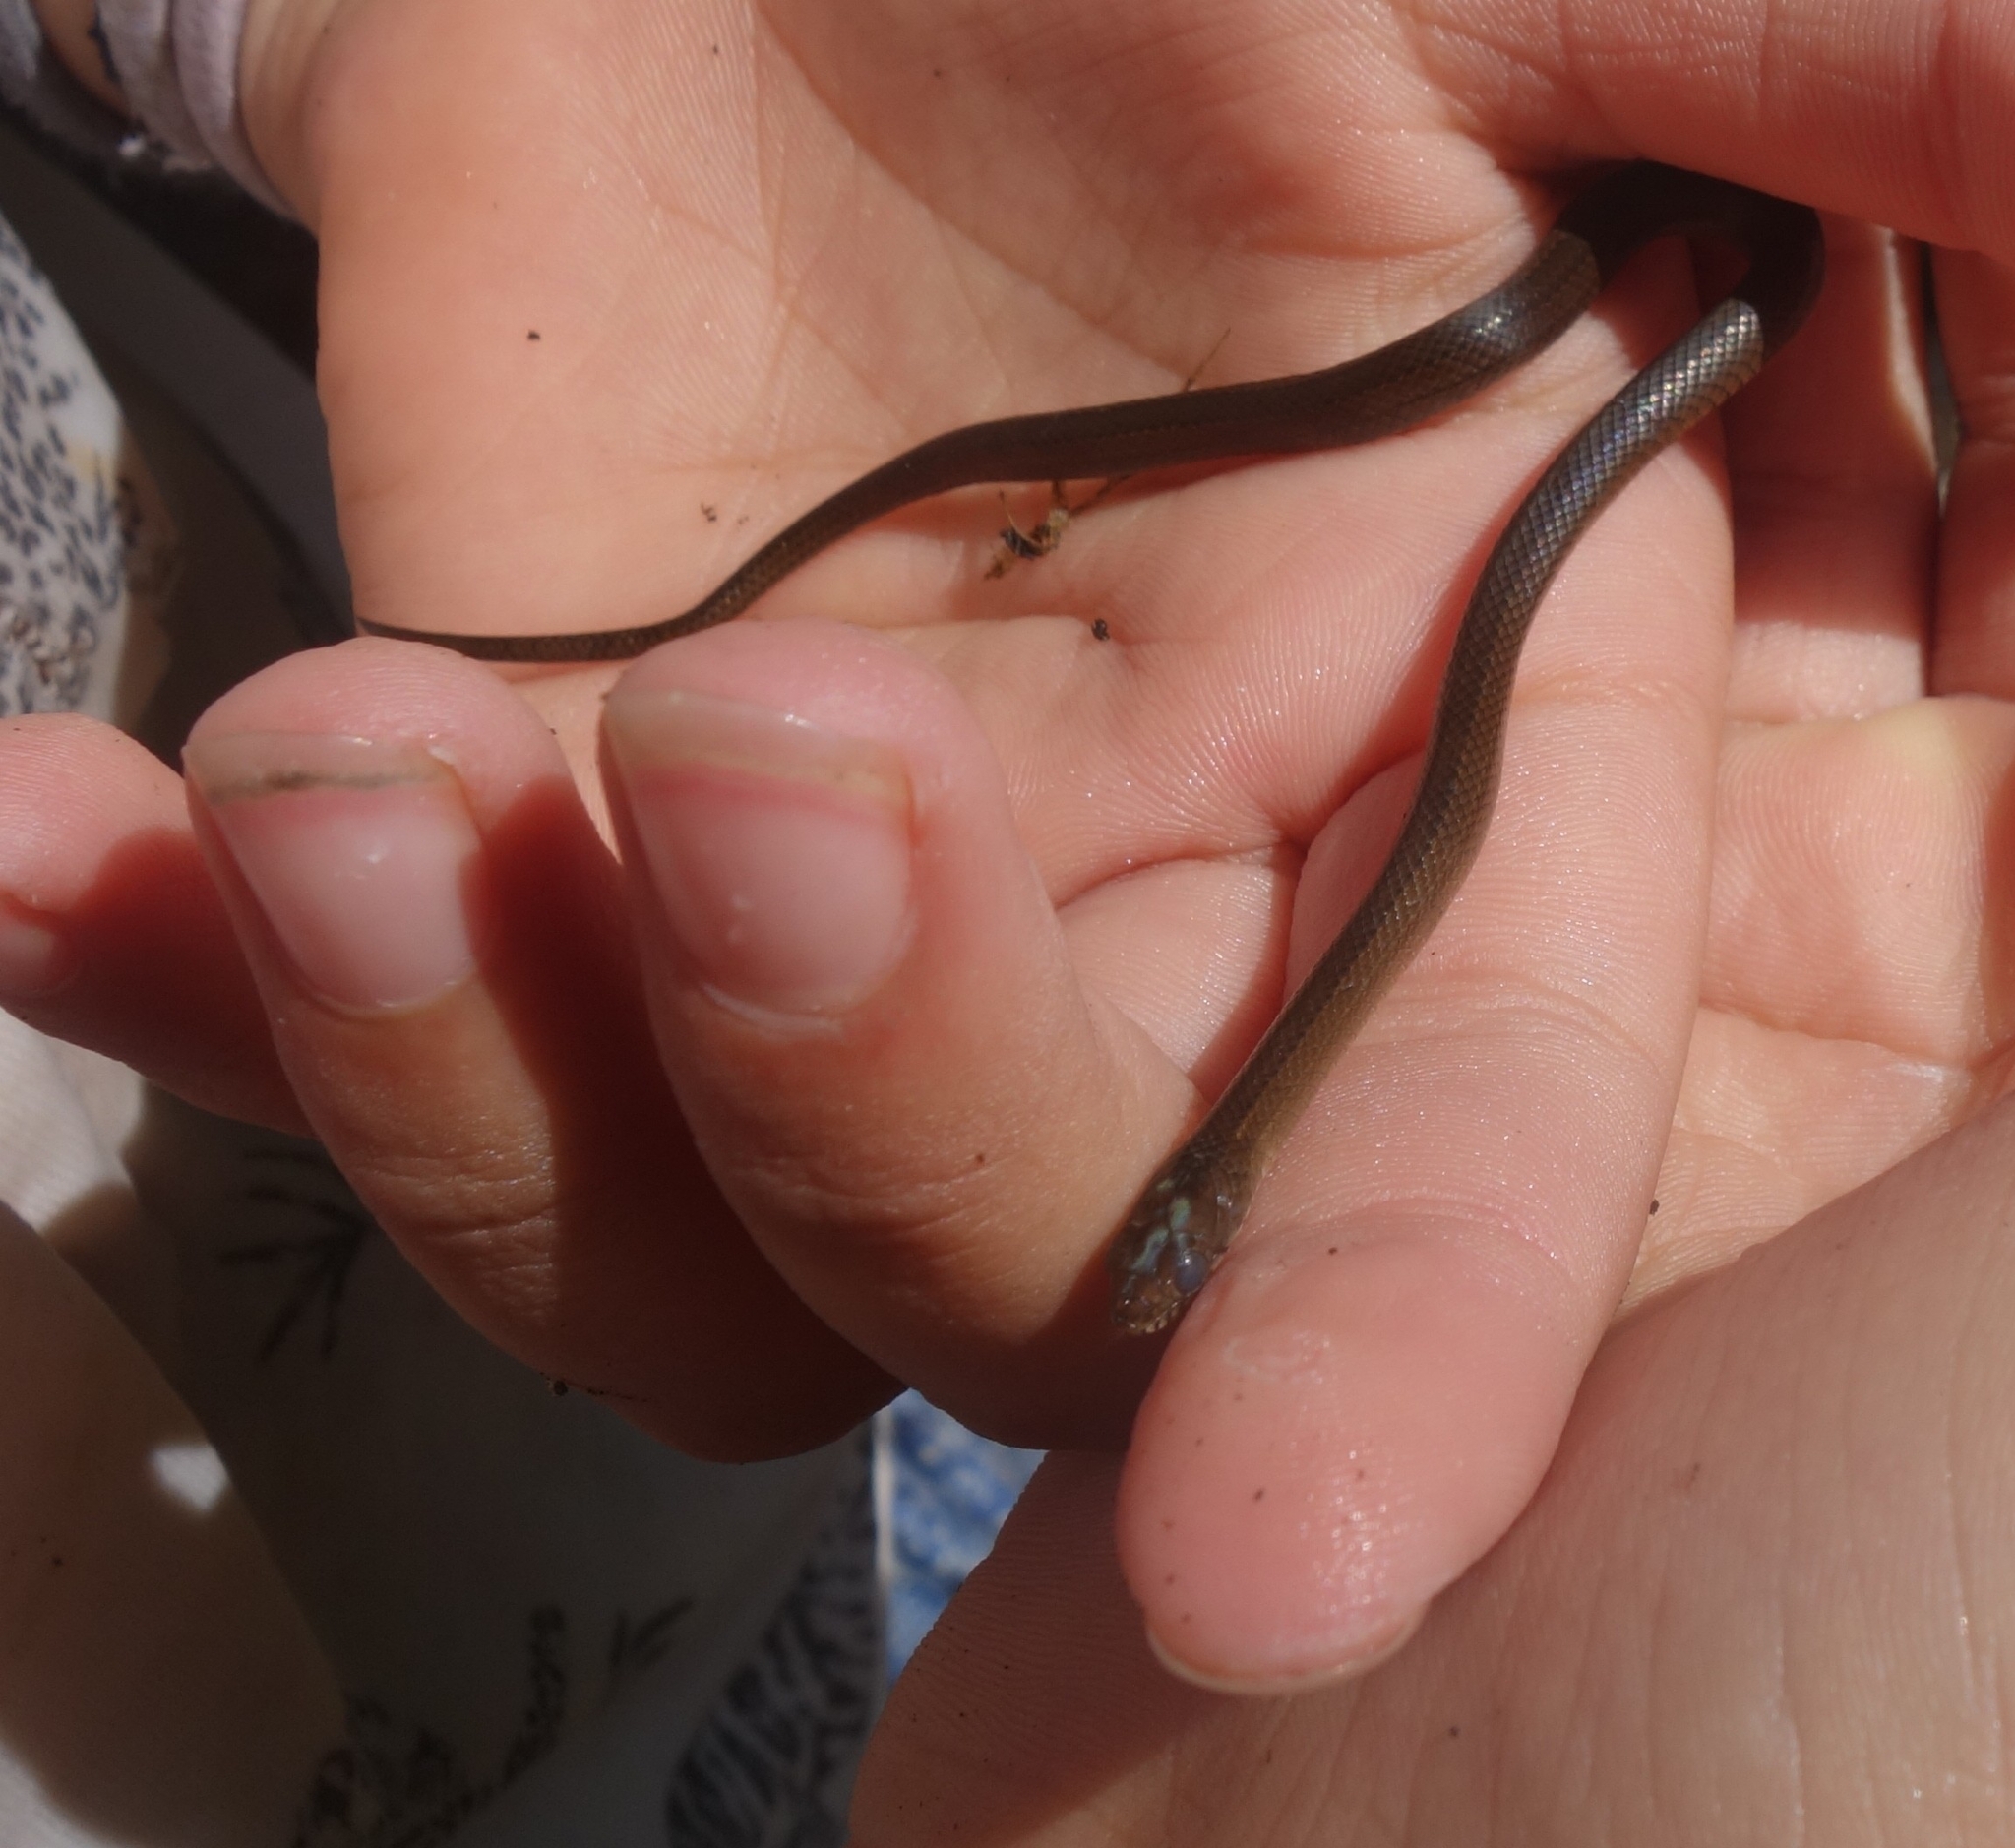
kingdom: Animalia
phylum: Chordata
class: Squamata
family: Colubridae
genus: Natriciteres
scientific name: Natriciteres olivacea
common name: Olive marsh snake
